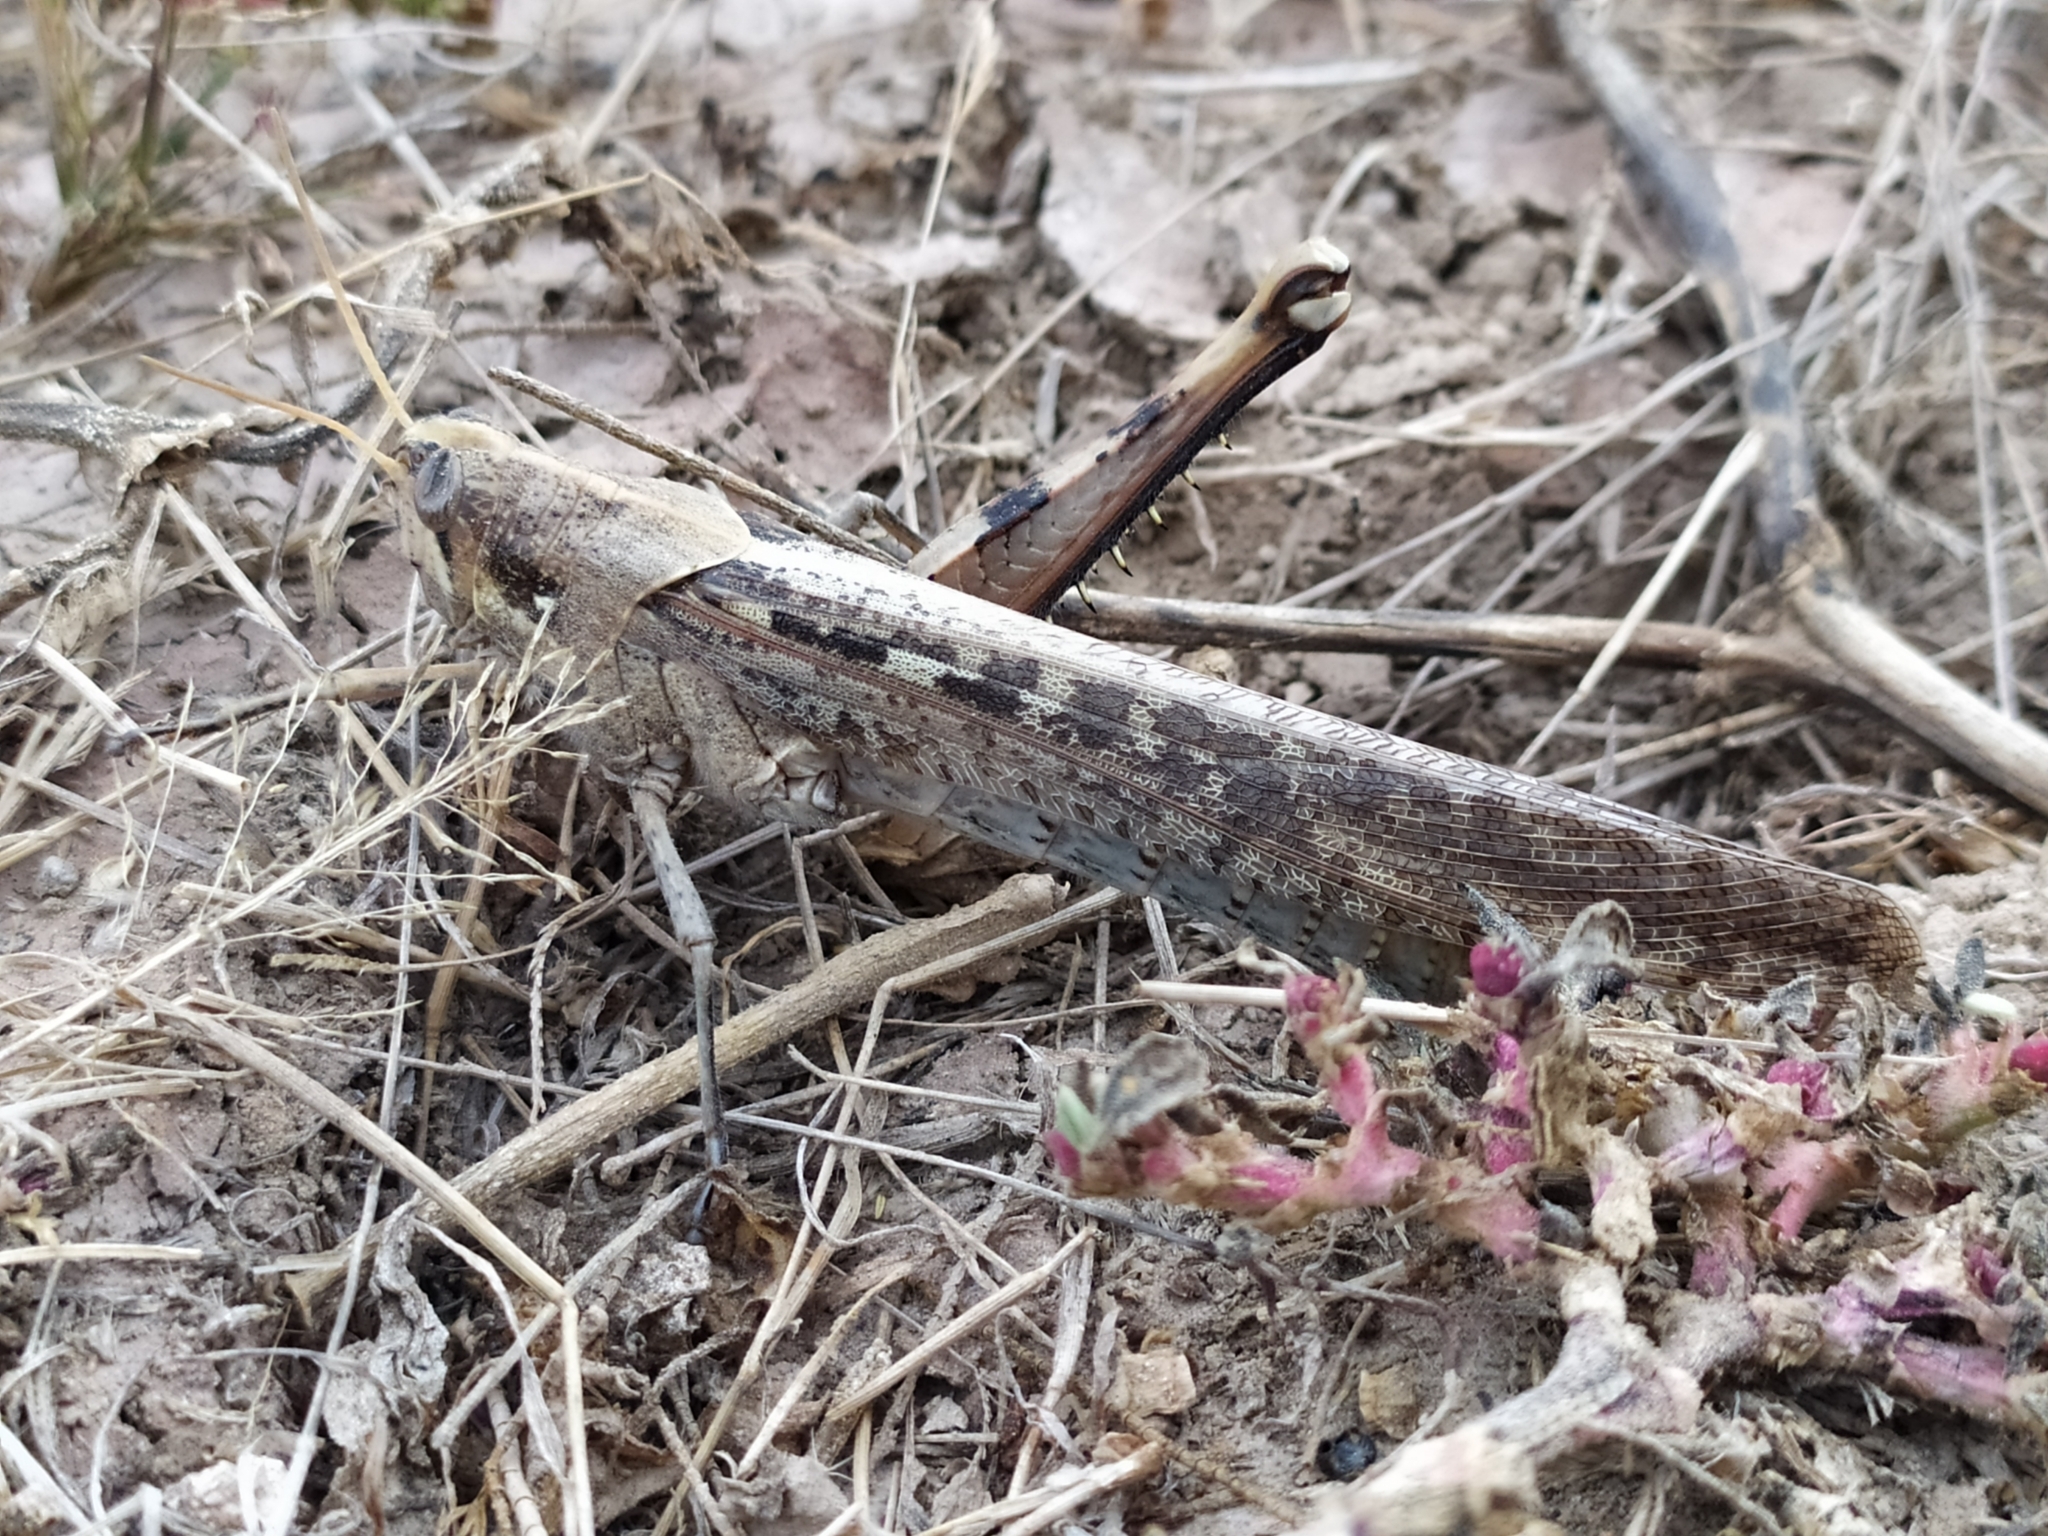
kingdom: Animalia
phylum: Arthropoda
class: Insecta
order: Orthoptera
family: Acrididae
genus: Schistocerca
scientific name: Schistocerca nitens
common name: Vagrant grasshopper
